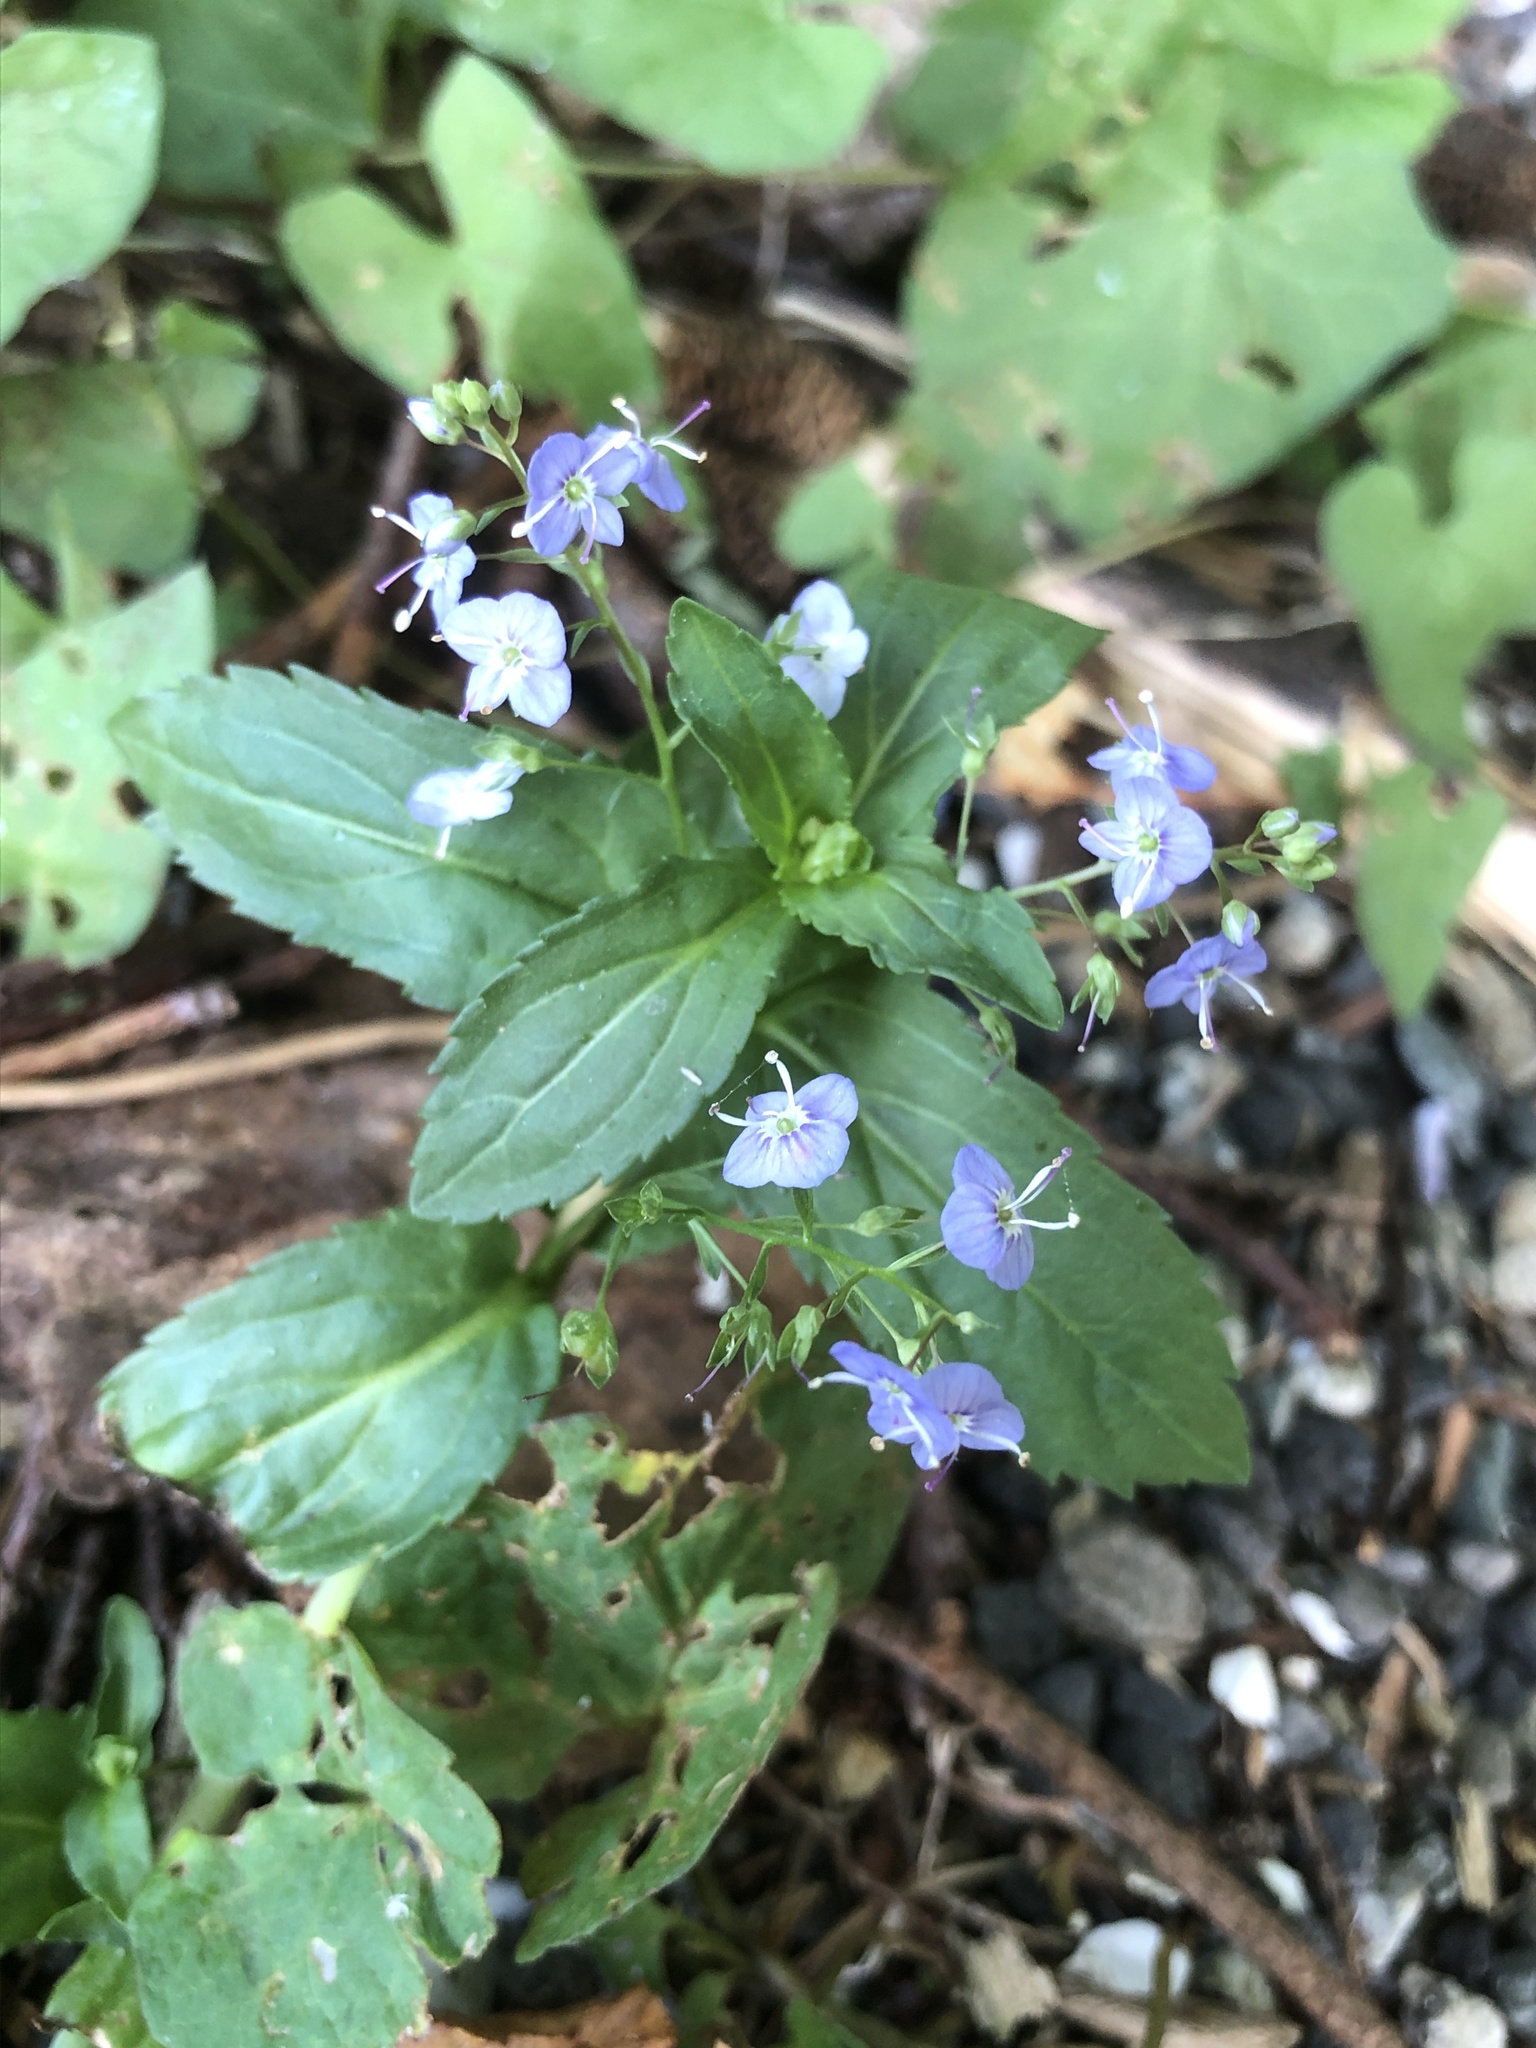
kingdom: Plantae
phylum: Tracheophyta
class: Magnoliopsida
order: Lamiales
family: Plantaginaceae
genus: Veronica
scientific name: Veronica americana
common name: American brooklime
